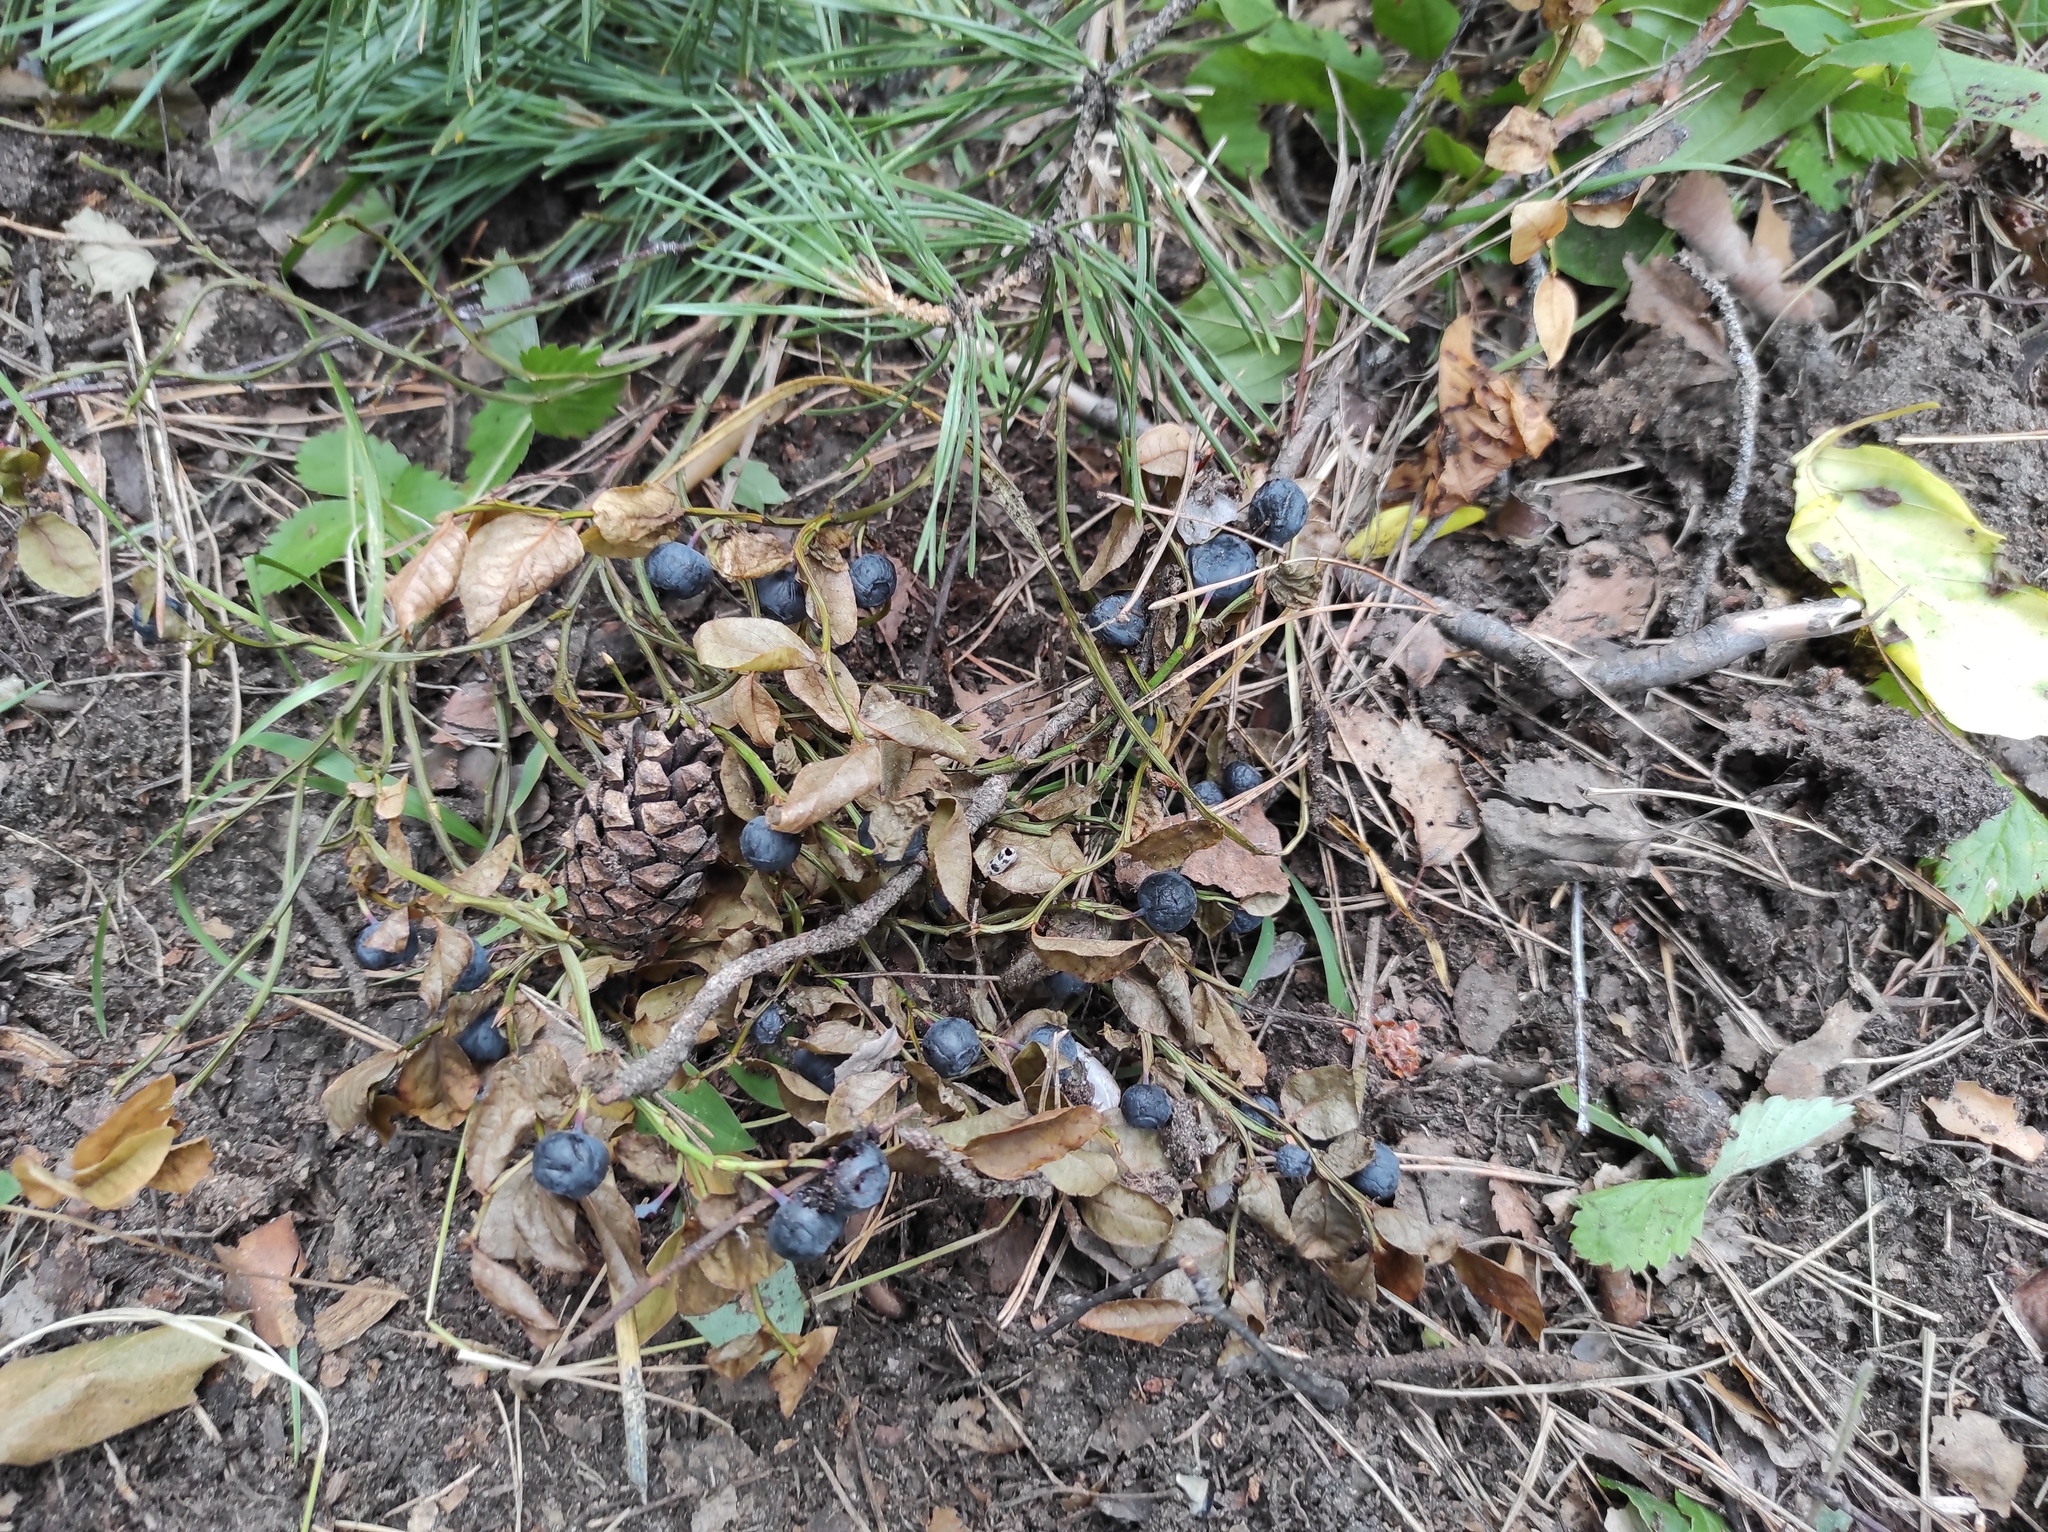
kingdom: Plantae
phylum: Tracheophyta
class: Magnoliopsida
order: Ericales
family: Ericaceae
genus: Vaccinium
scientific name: Vaccinium myrtillus
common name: Bilberry
